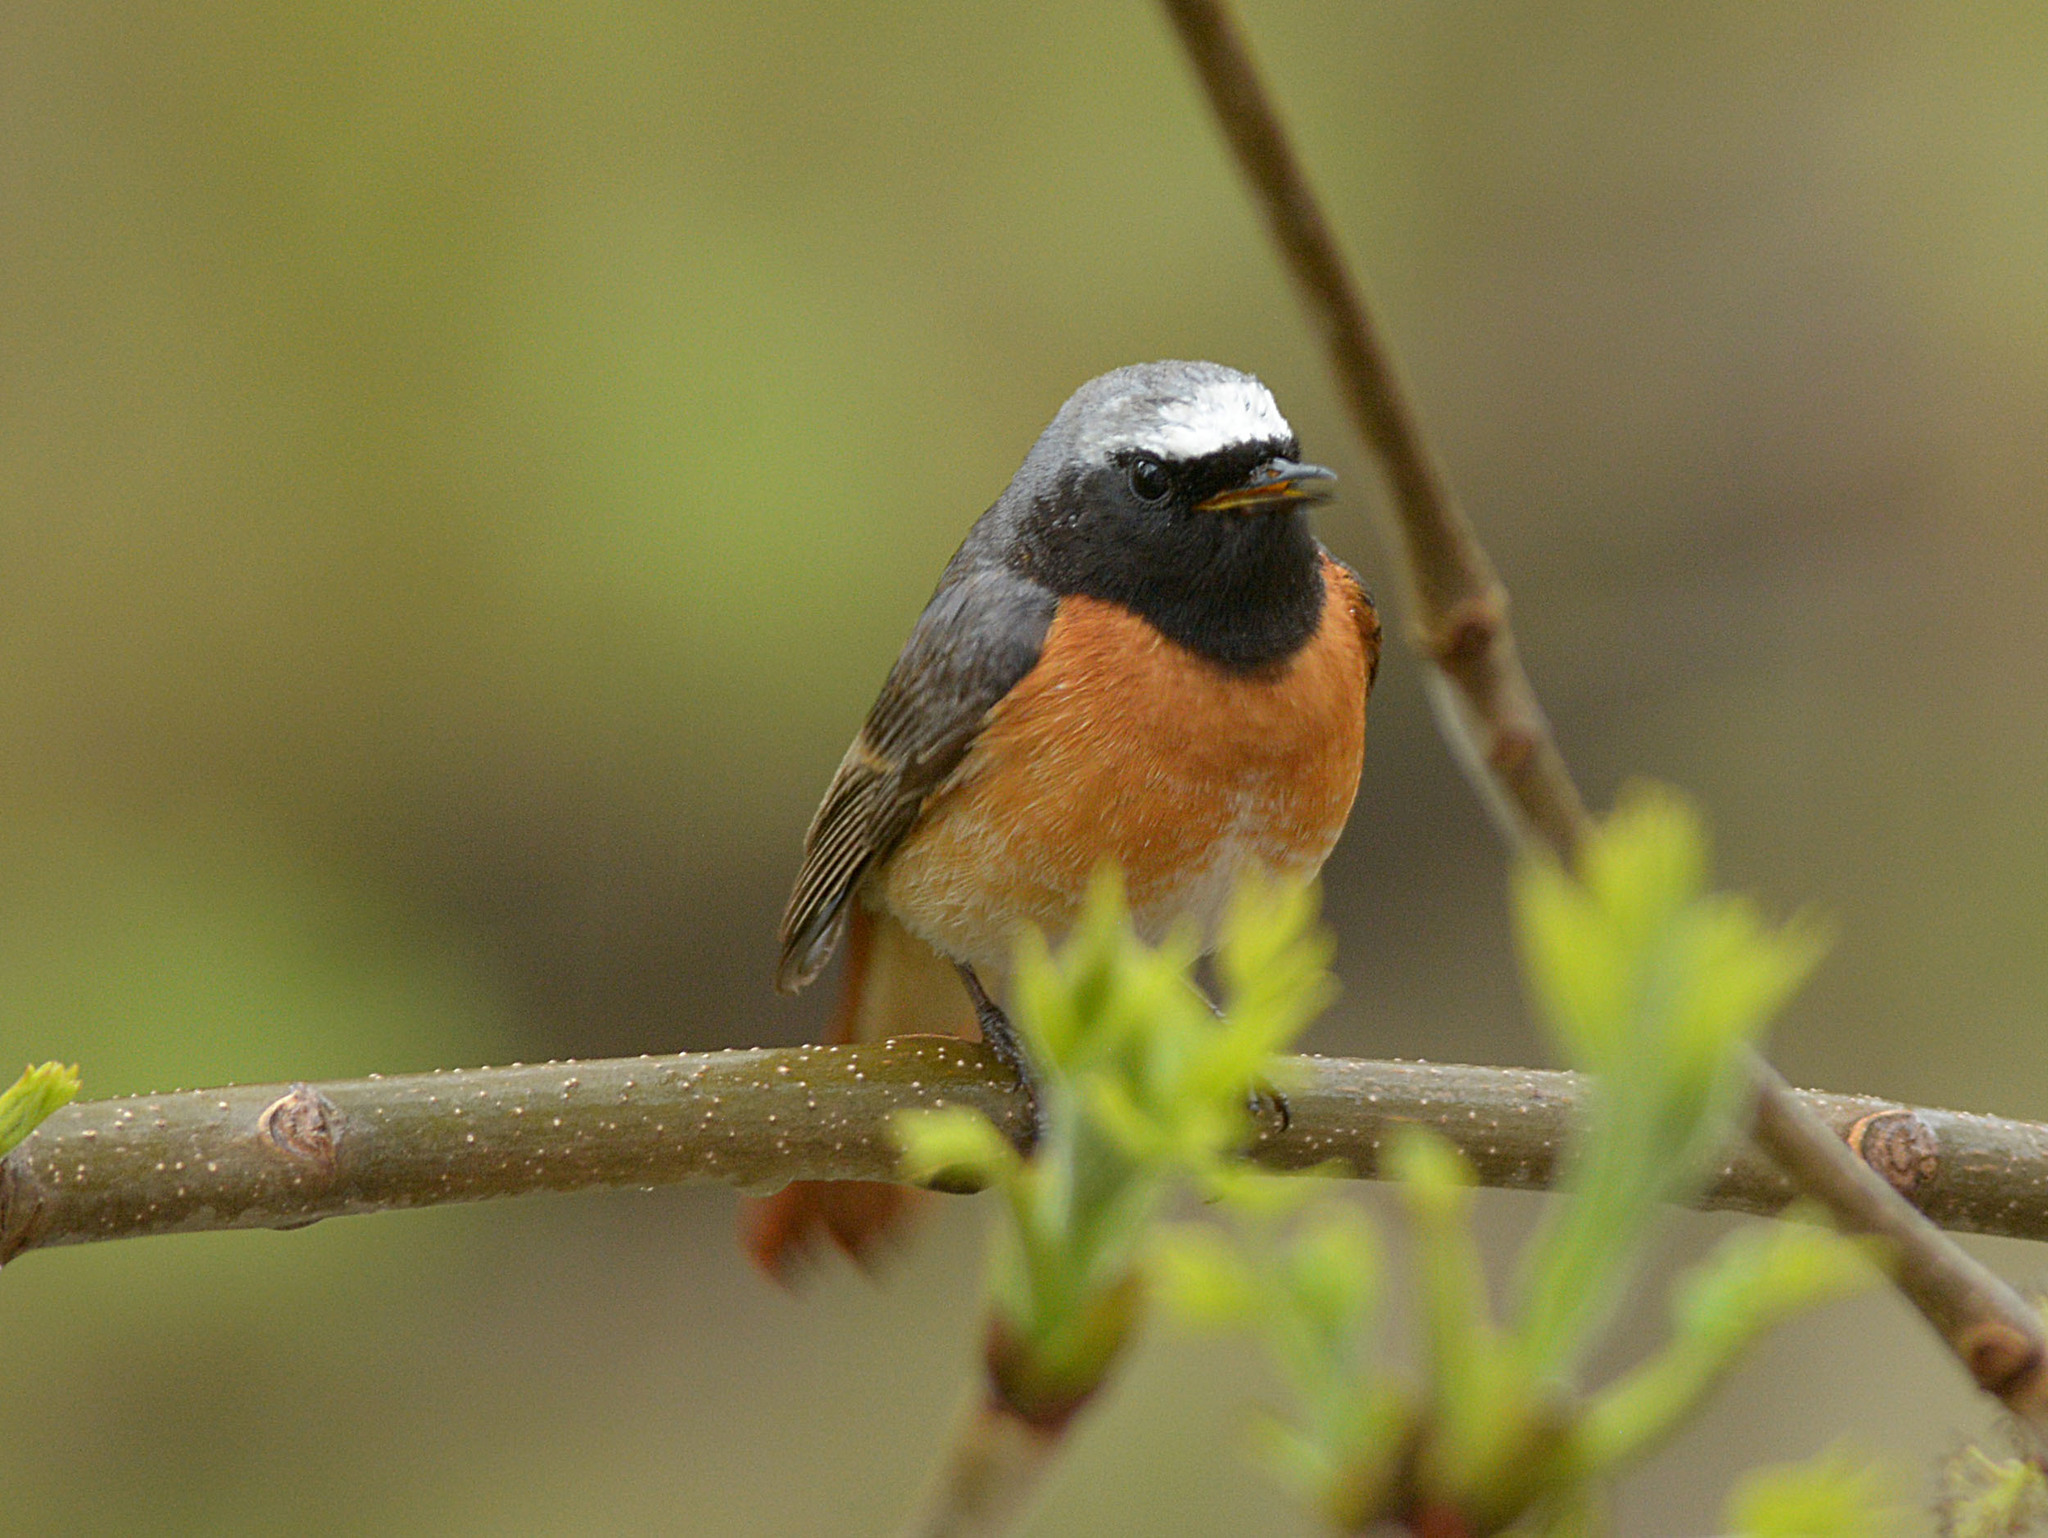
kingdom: Animalia
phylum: Chordata
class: Aves
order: Passeriformes
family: Muscicapidae
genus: Phoenicurus
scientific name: Phoenicurus phoenicurus
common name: Common redstart
